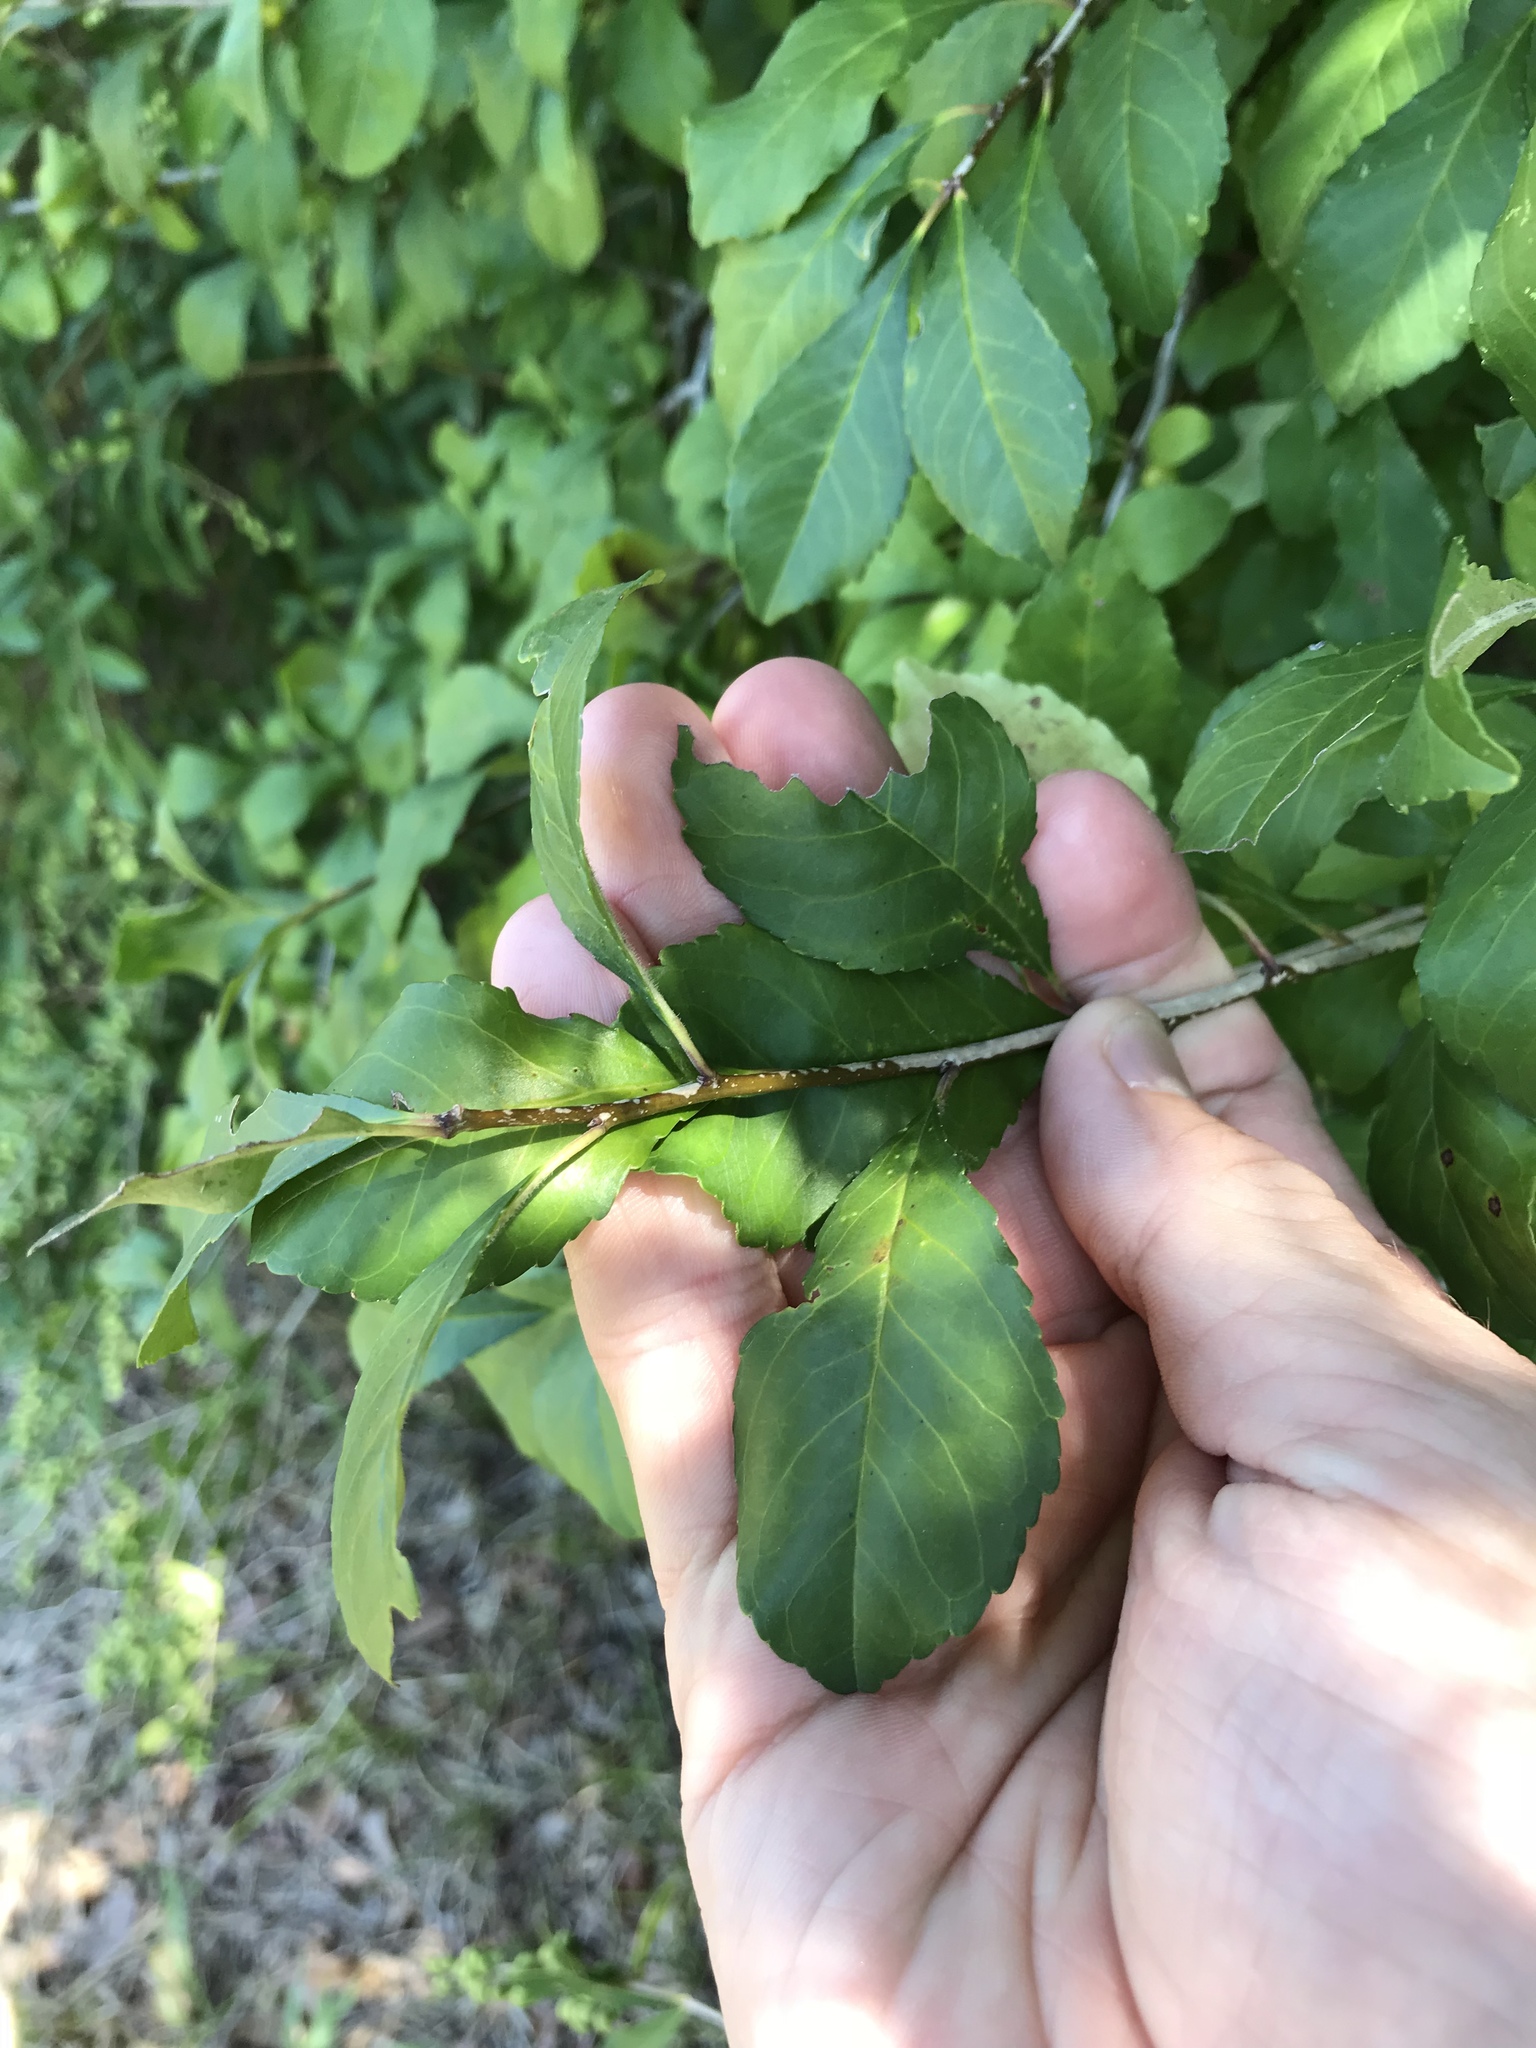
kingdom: Plantae
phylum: Tracheophyta
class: Magnoliopsida
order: Aquifoliales
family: Aquifoliaceae
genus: Ilex
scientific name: Ilex decidua
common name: Possum-haw
